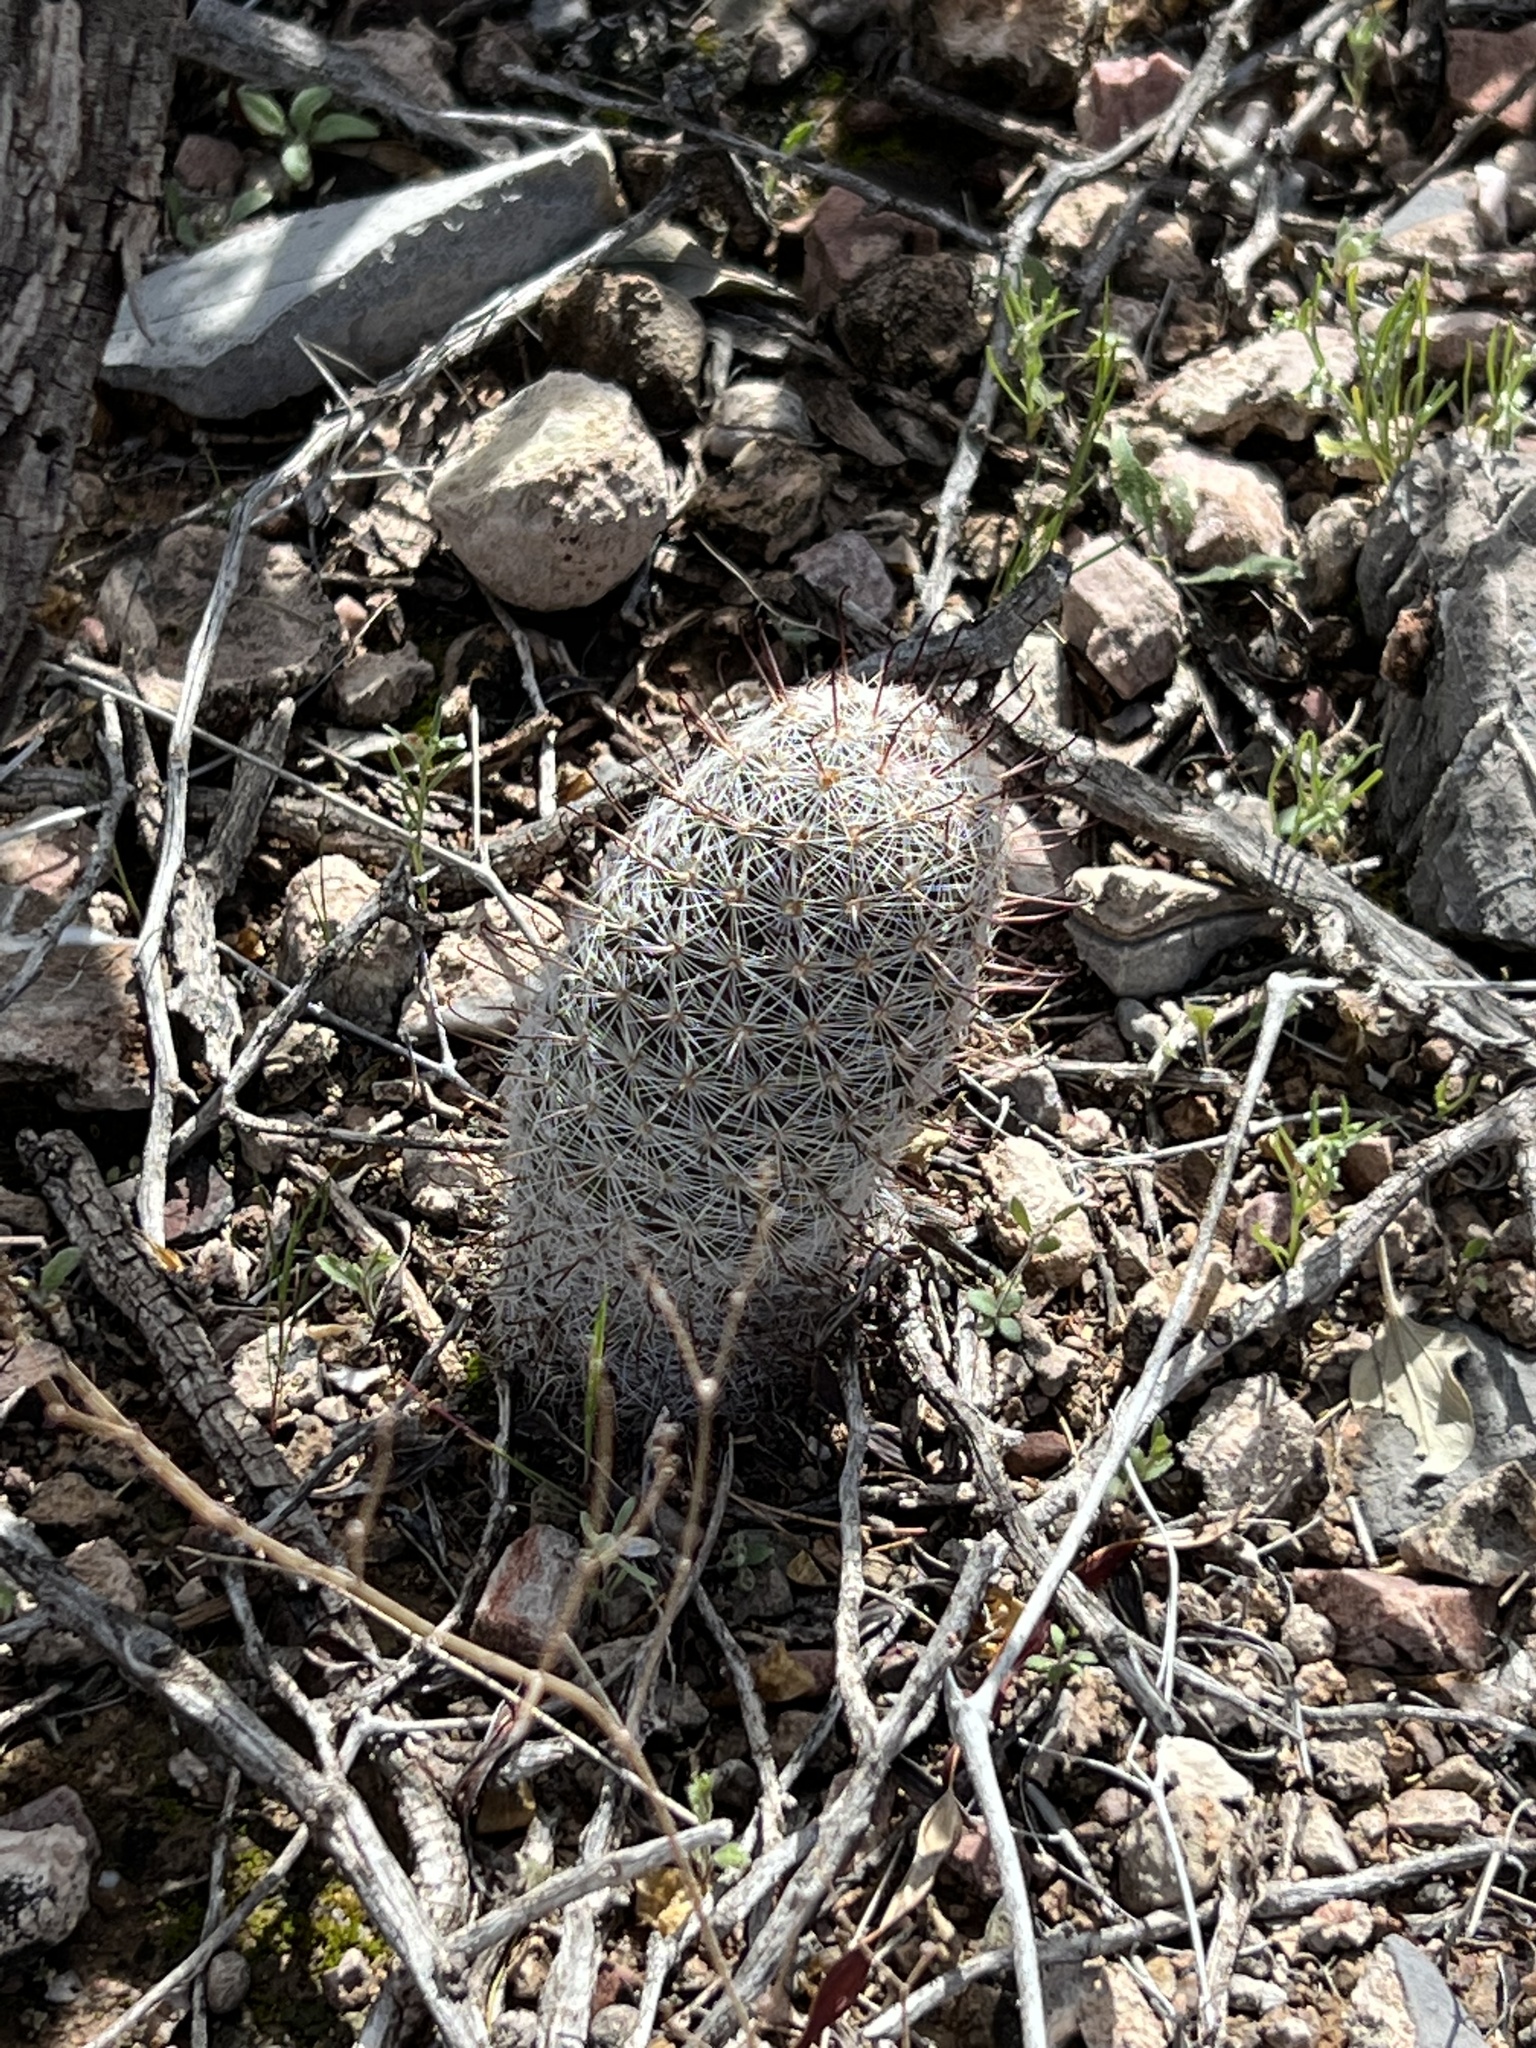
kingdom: Plantae
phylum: Tracheophyta
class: Magnoliopsida
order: Caryophyllales
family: Cactaceae
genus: Cochemiea
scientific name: Cochemiea grahamii
